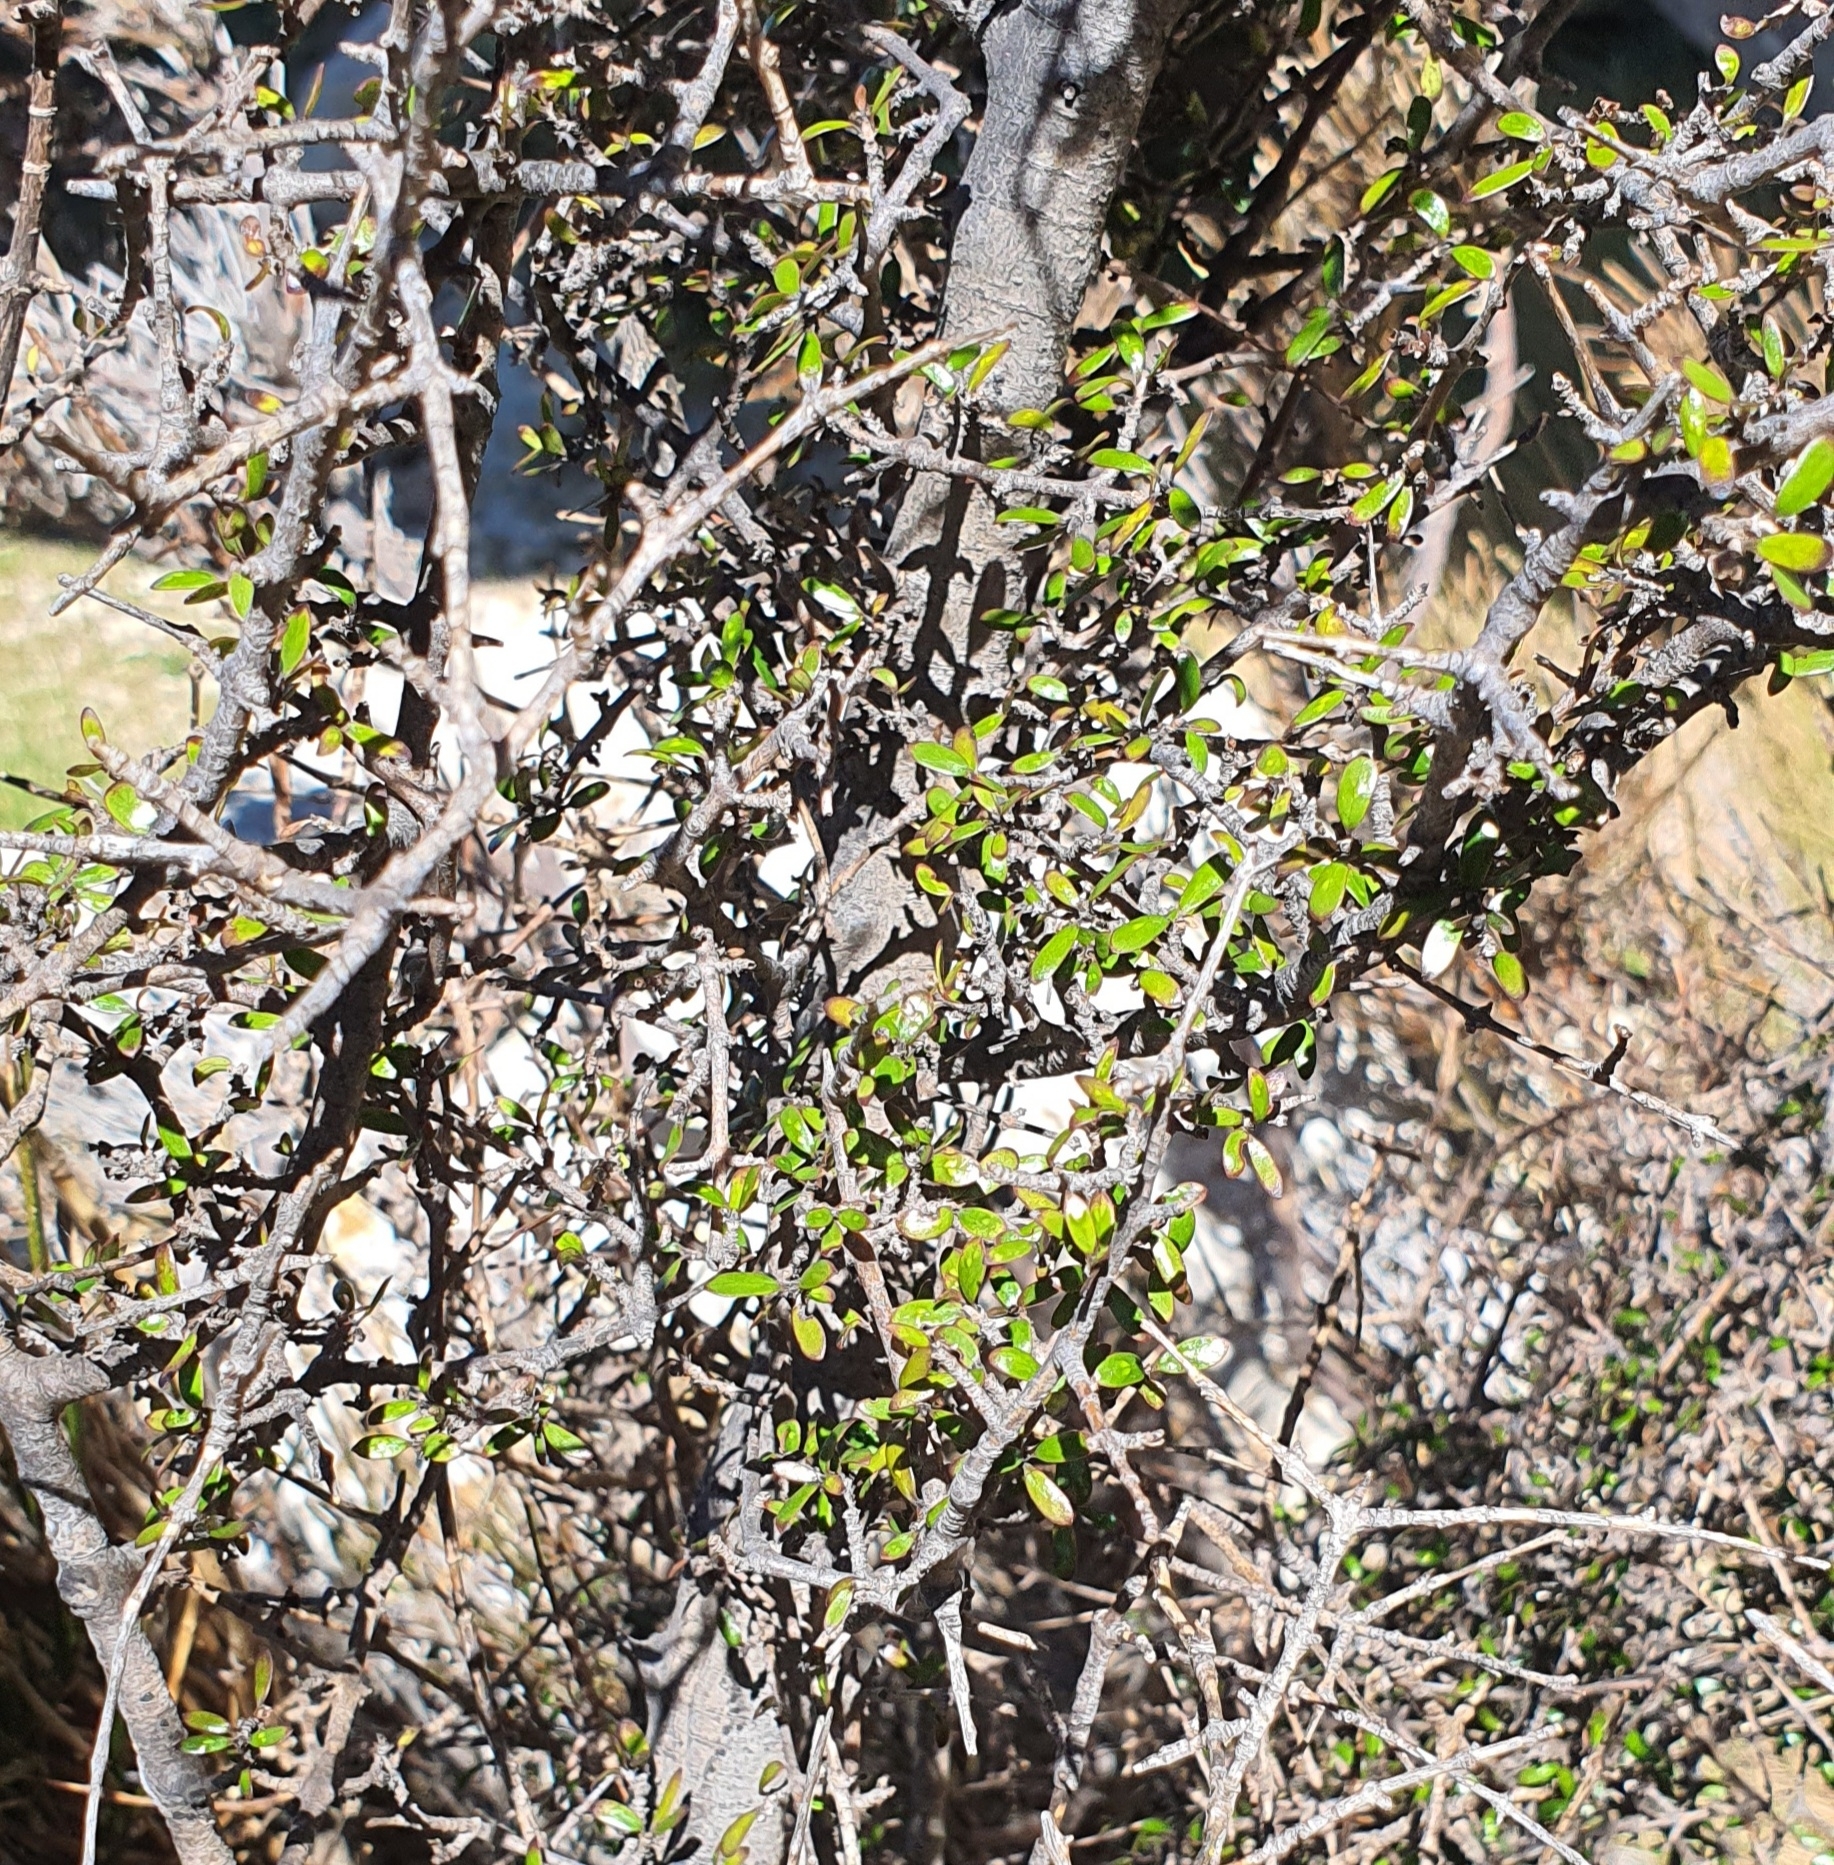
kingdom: Plantae
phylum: Tracheophyta
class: Magnoliopsida
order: Gentianales
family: Rubiaceae
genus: Coprosma
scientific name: Coprosma propinqua
